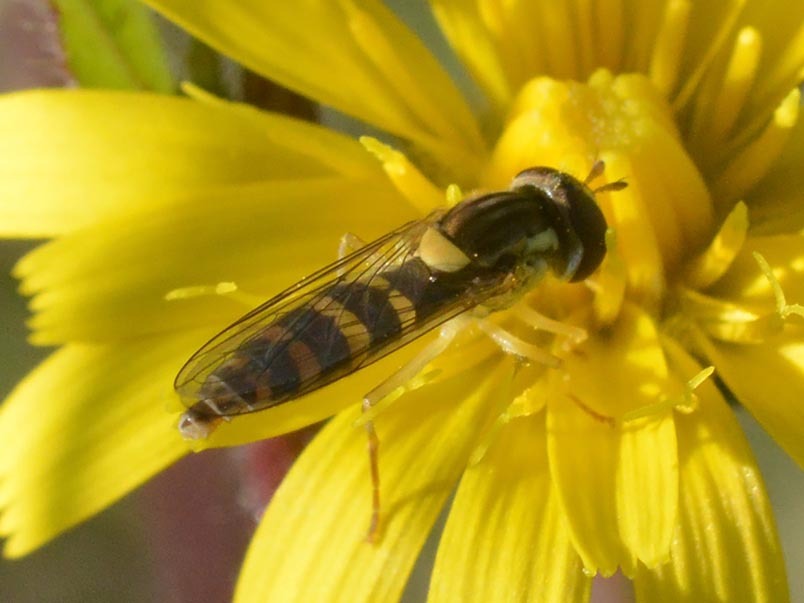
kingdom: Animalia
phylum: Arthropoda
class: Insecta
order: Diptera
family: Syrphidae
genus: Sphaerophoria
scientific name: Sphaerophoria
